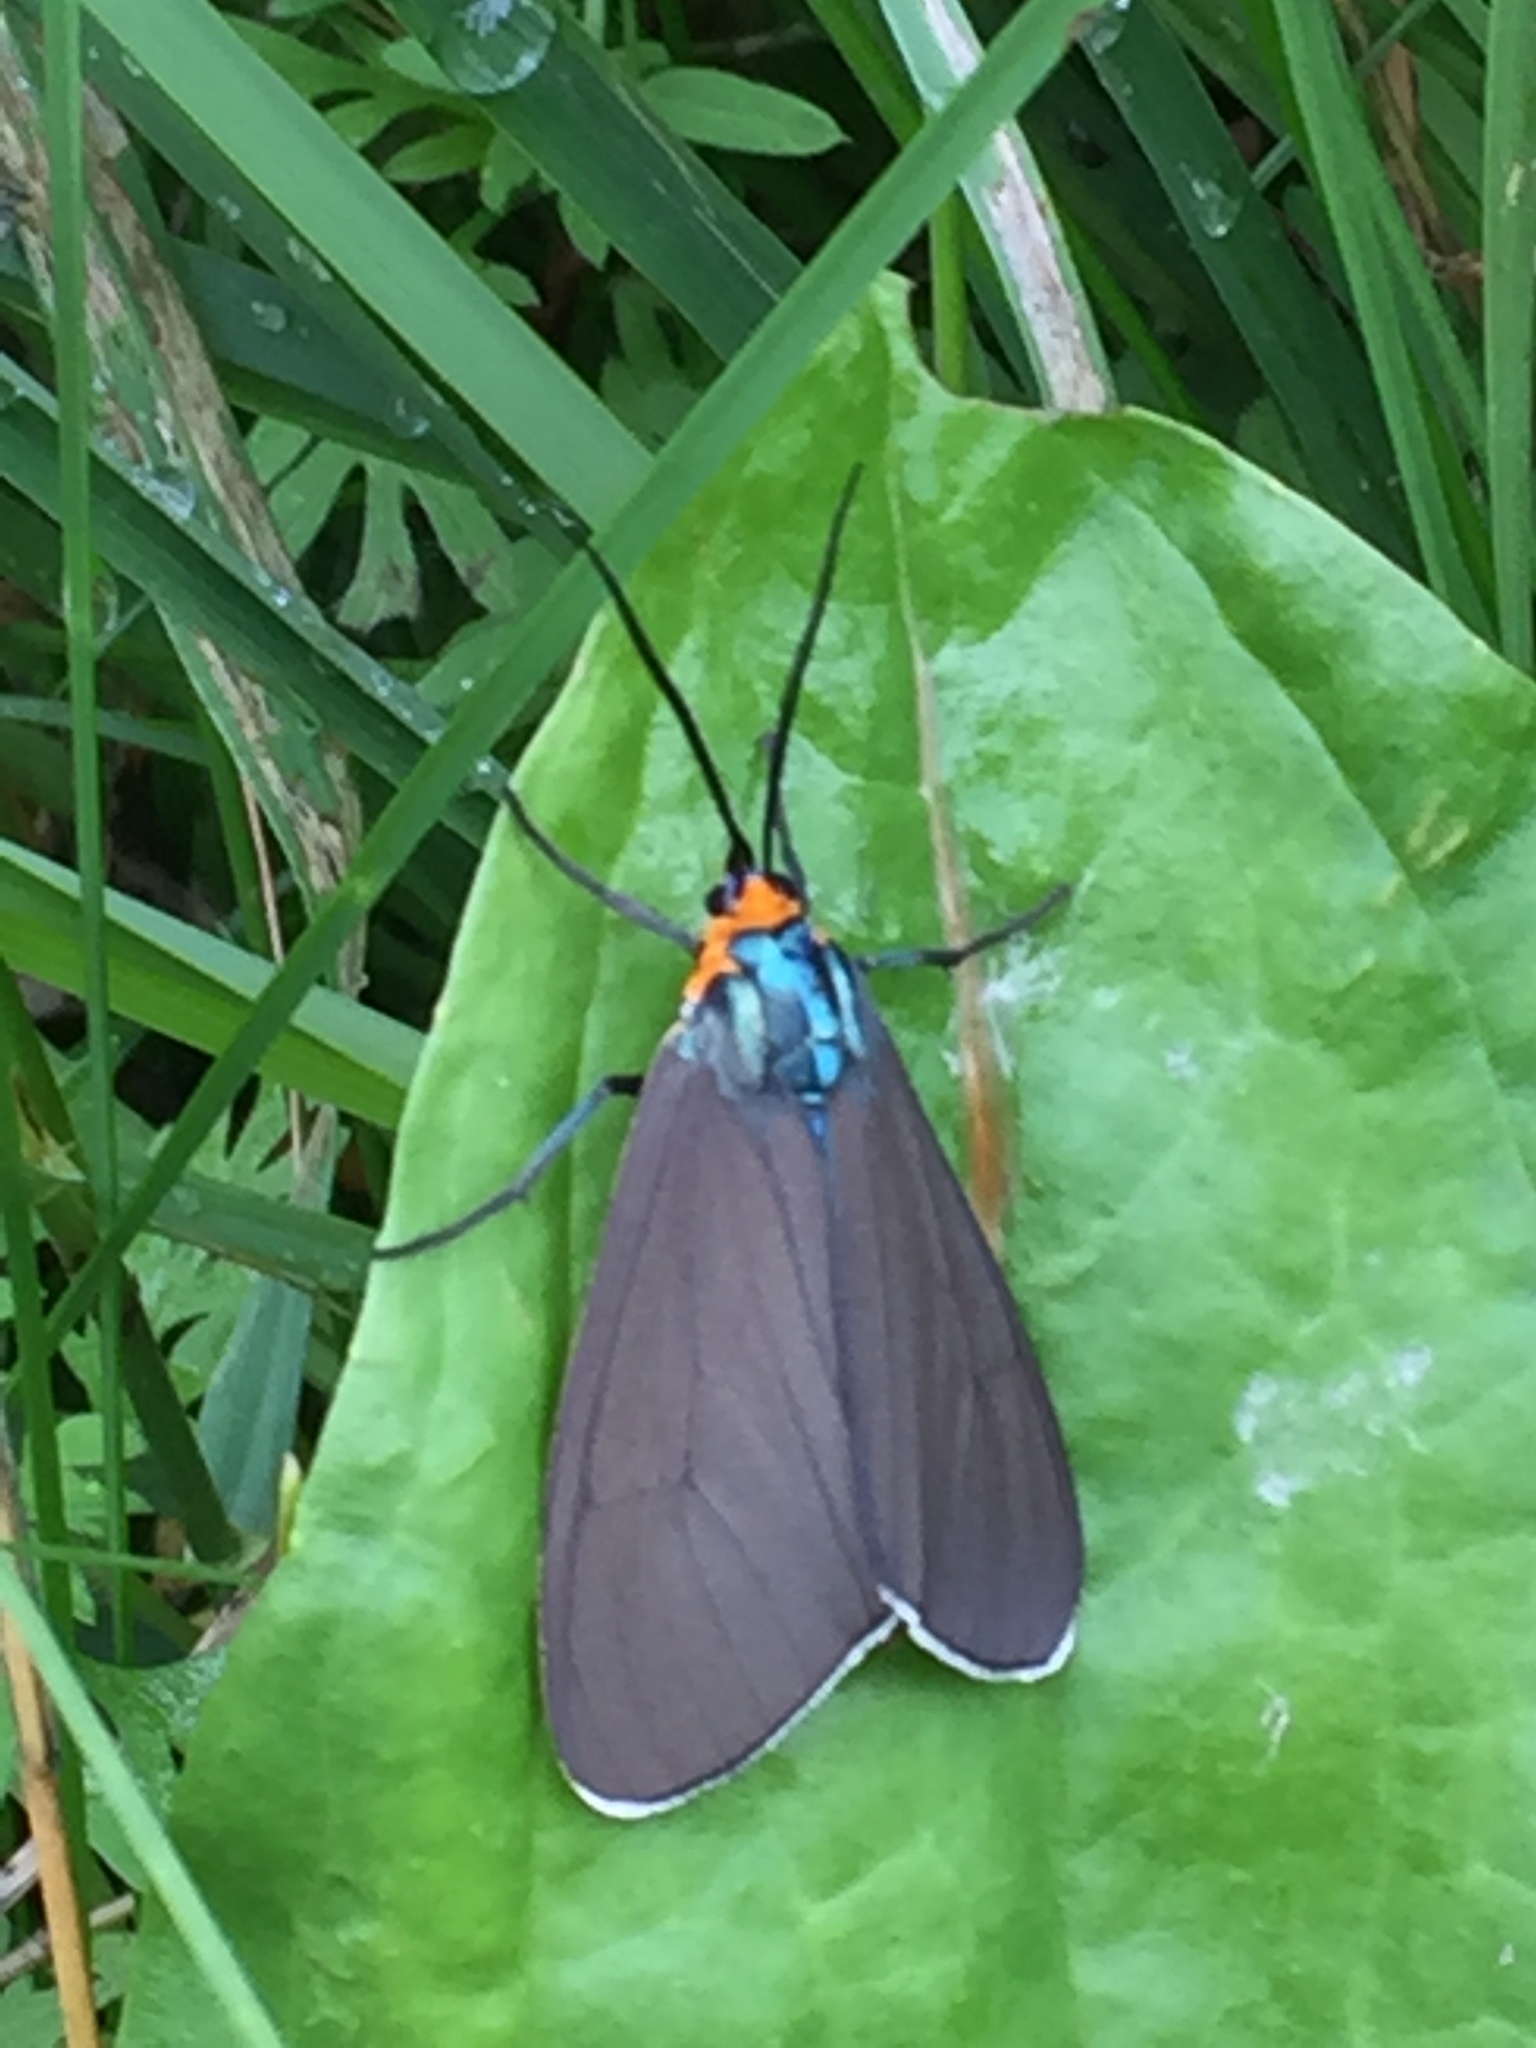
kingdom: Animalia
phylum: Arthropoda
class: Insecta
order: Lepidoptera
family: Erebidae
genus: Ctenucha
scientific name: Ctenucha virginica
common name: Virginia ctenucha moth
